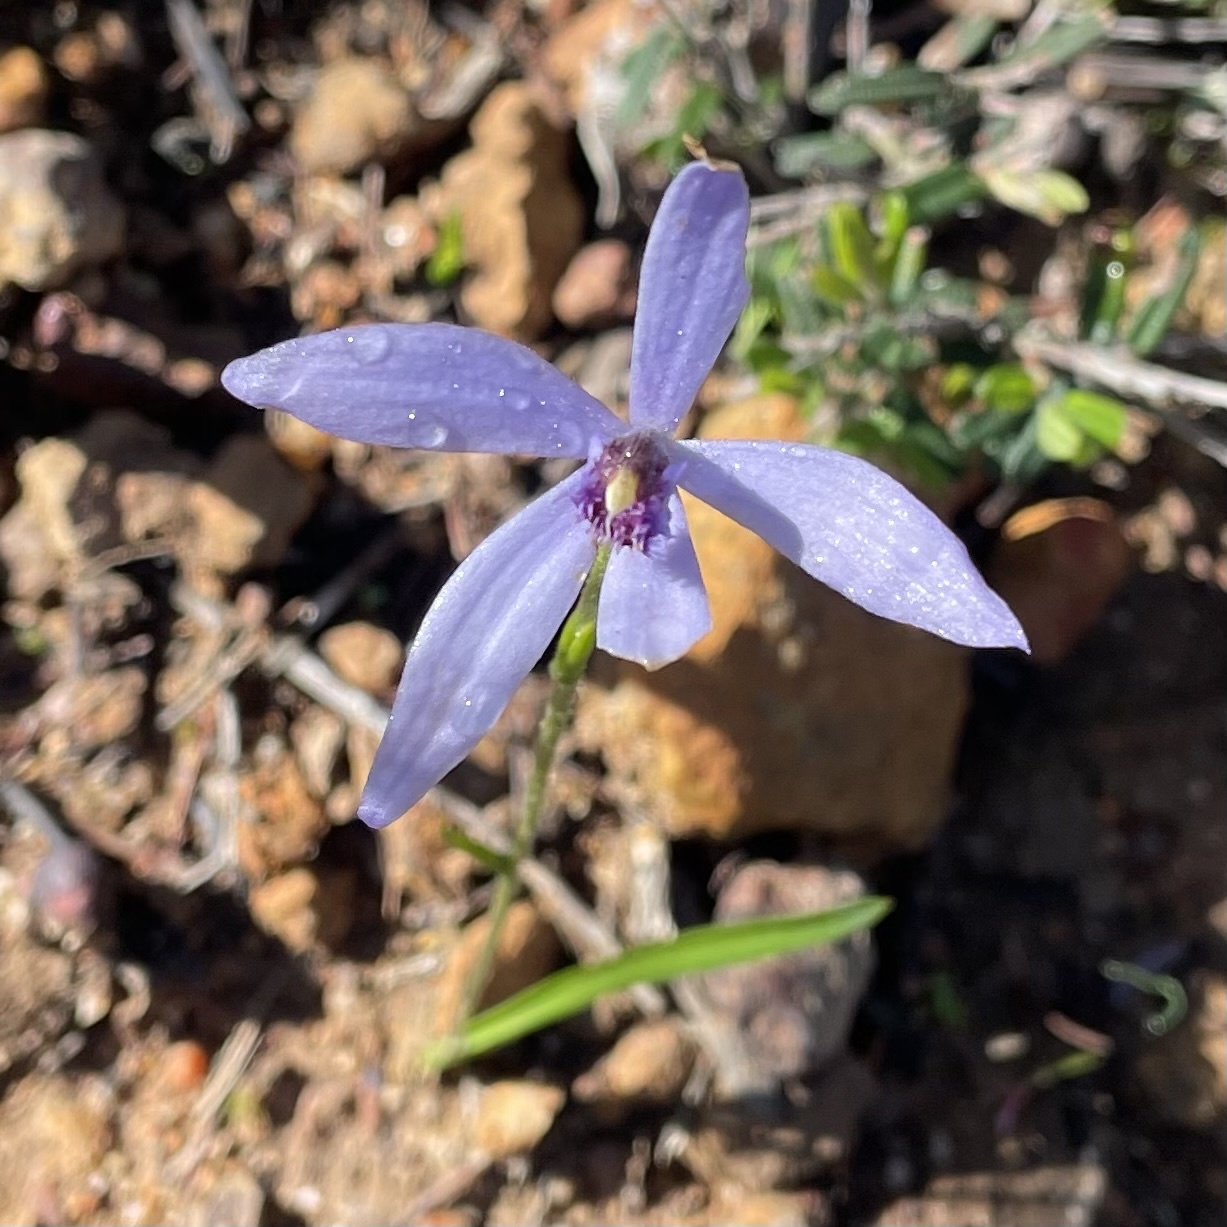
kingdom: Plantae
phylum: Tracheophyta
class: Liliopsida
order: Asparagales
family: Orchidaceae
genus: Pheladenia
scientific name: Pheladenia deformis
